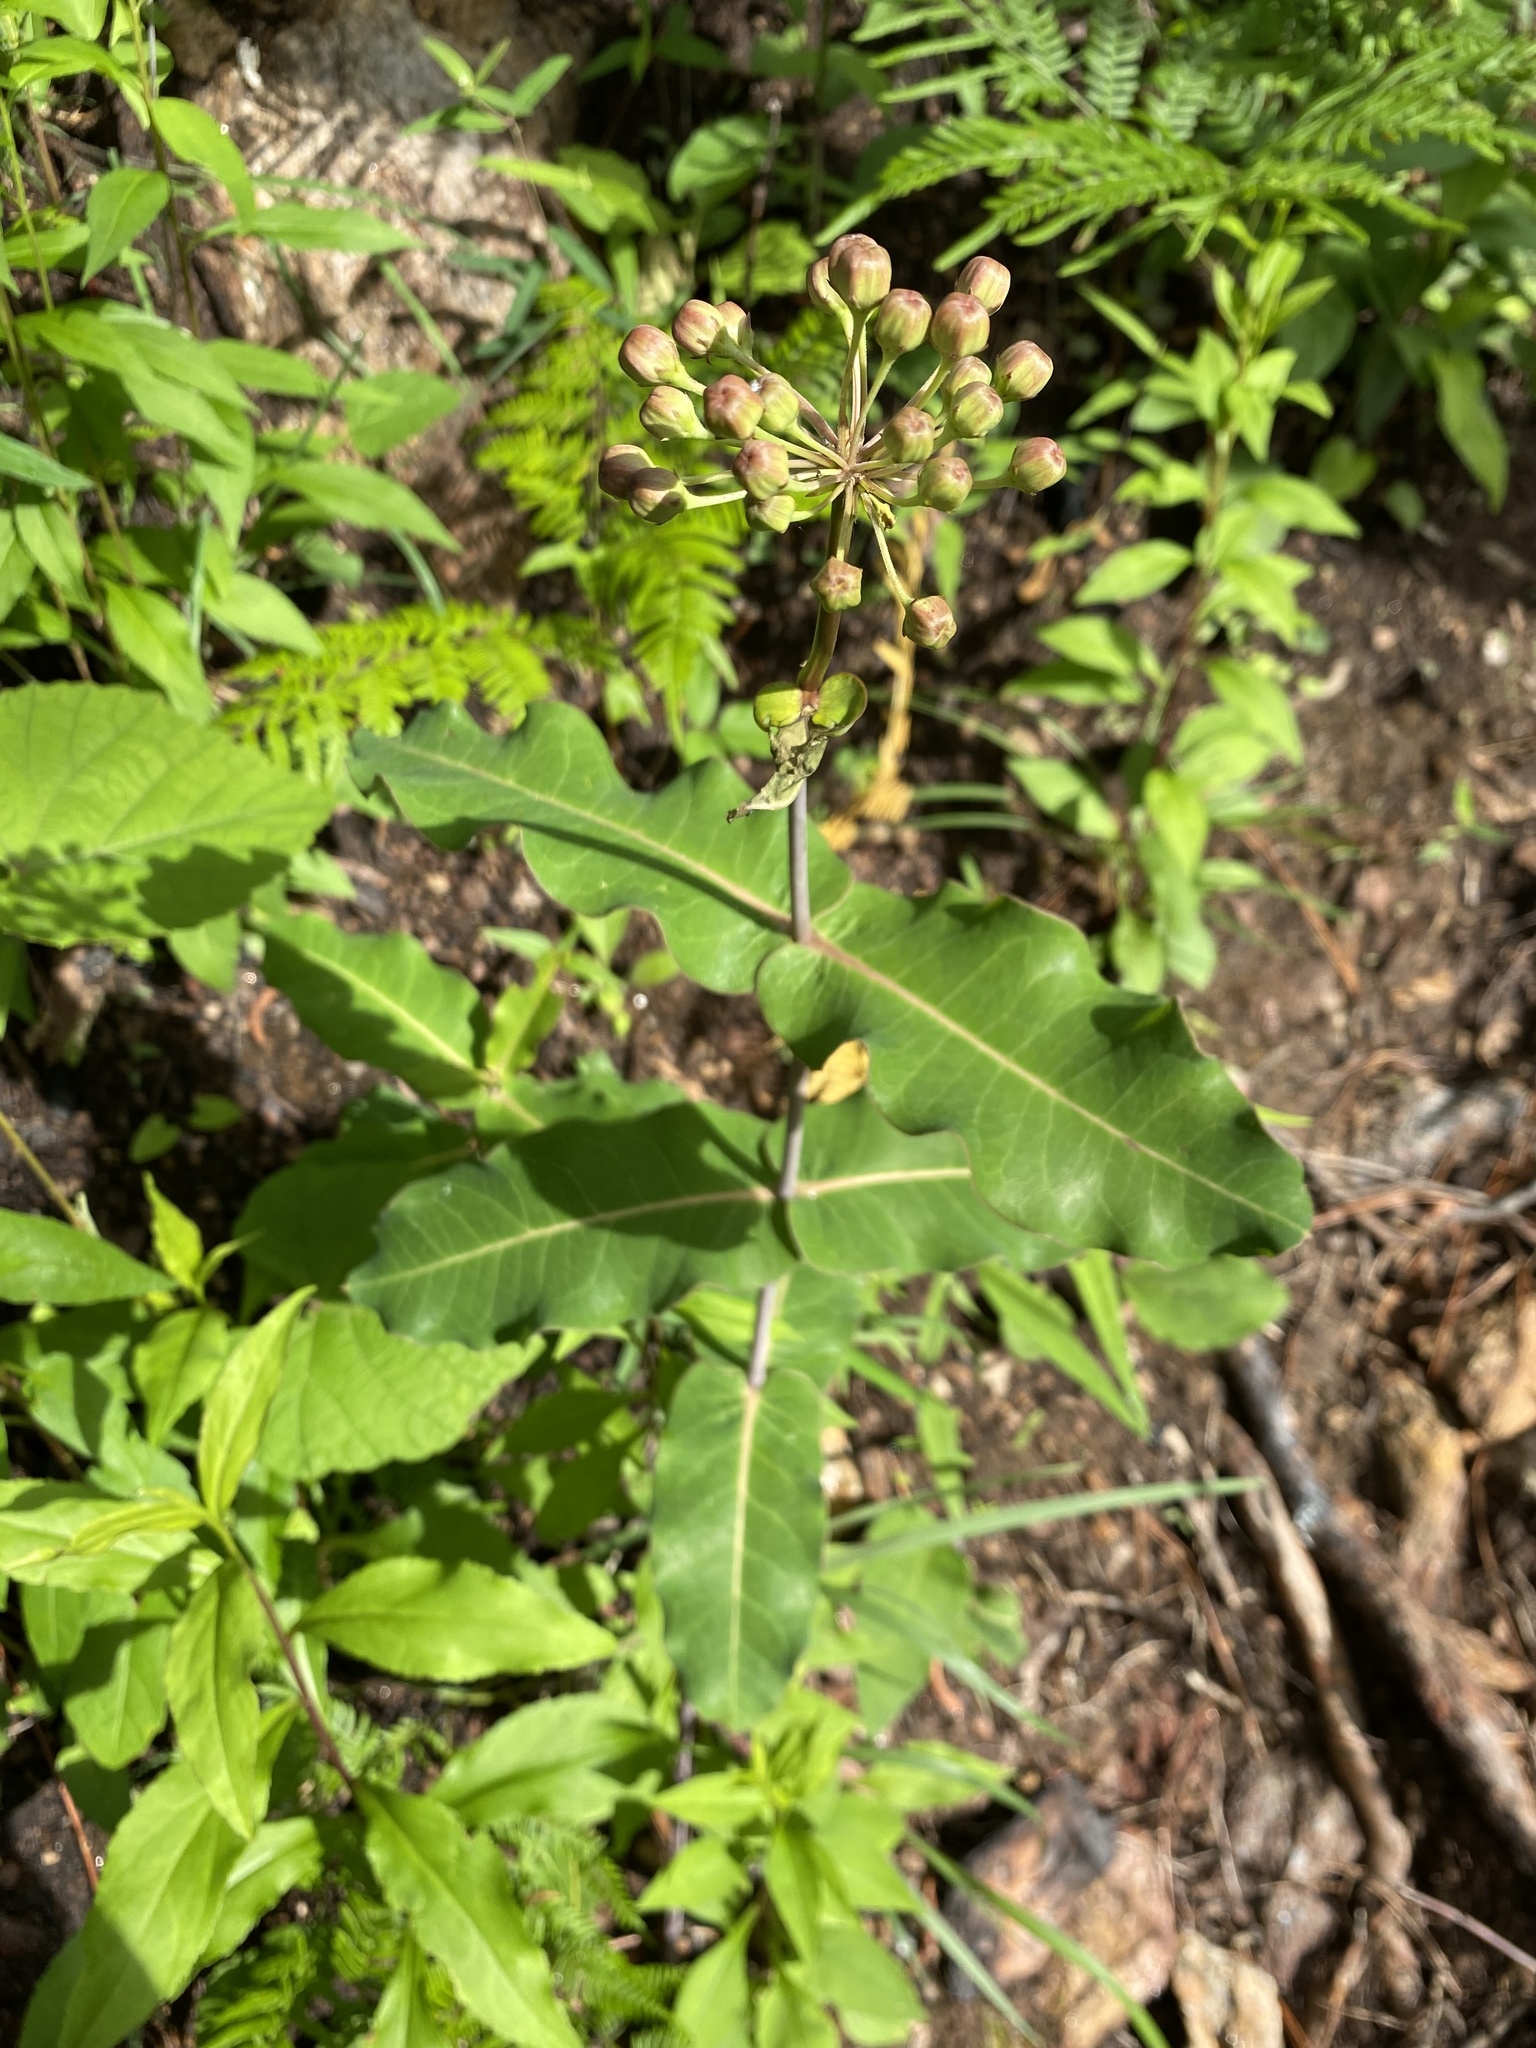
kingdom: Plantae
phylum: Tracheophyta
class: Magnoliopsida
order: Gentianales
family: Apocynaceae
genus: Asclepias
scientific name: Asclepias amplexicaulis
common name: Blunt-leaf milkweed
